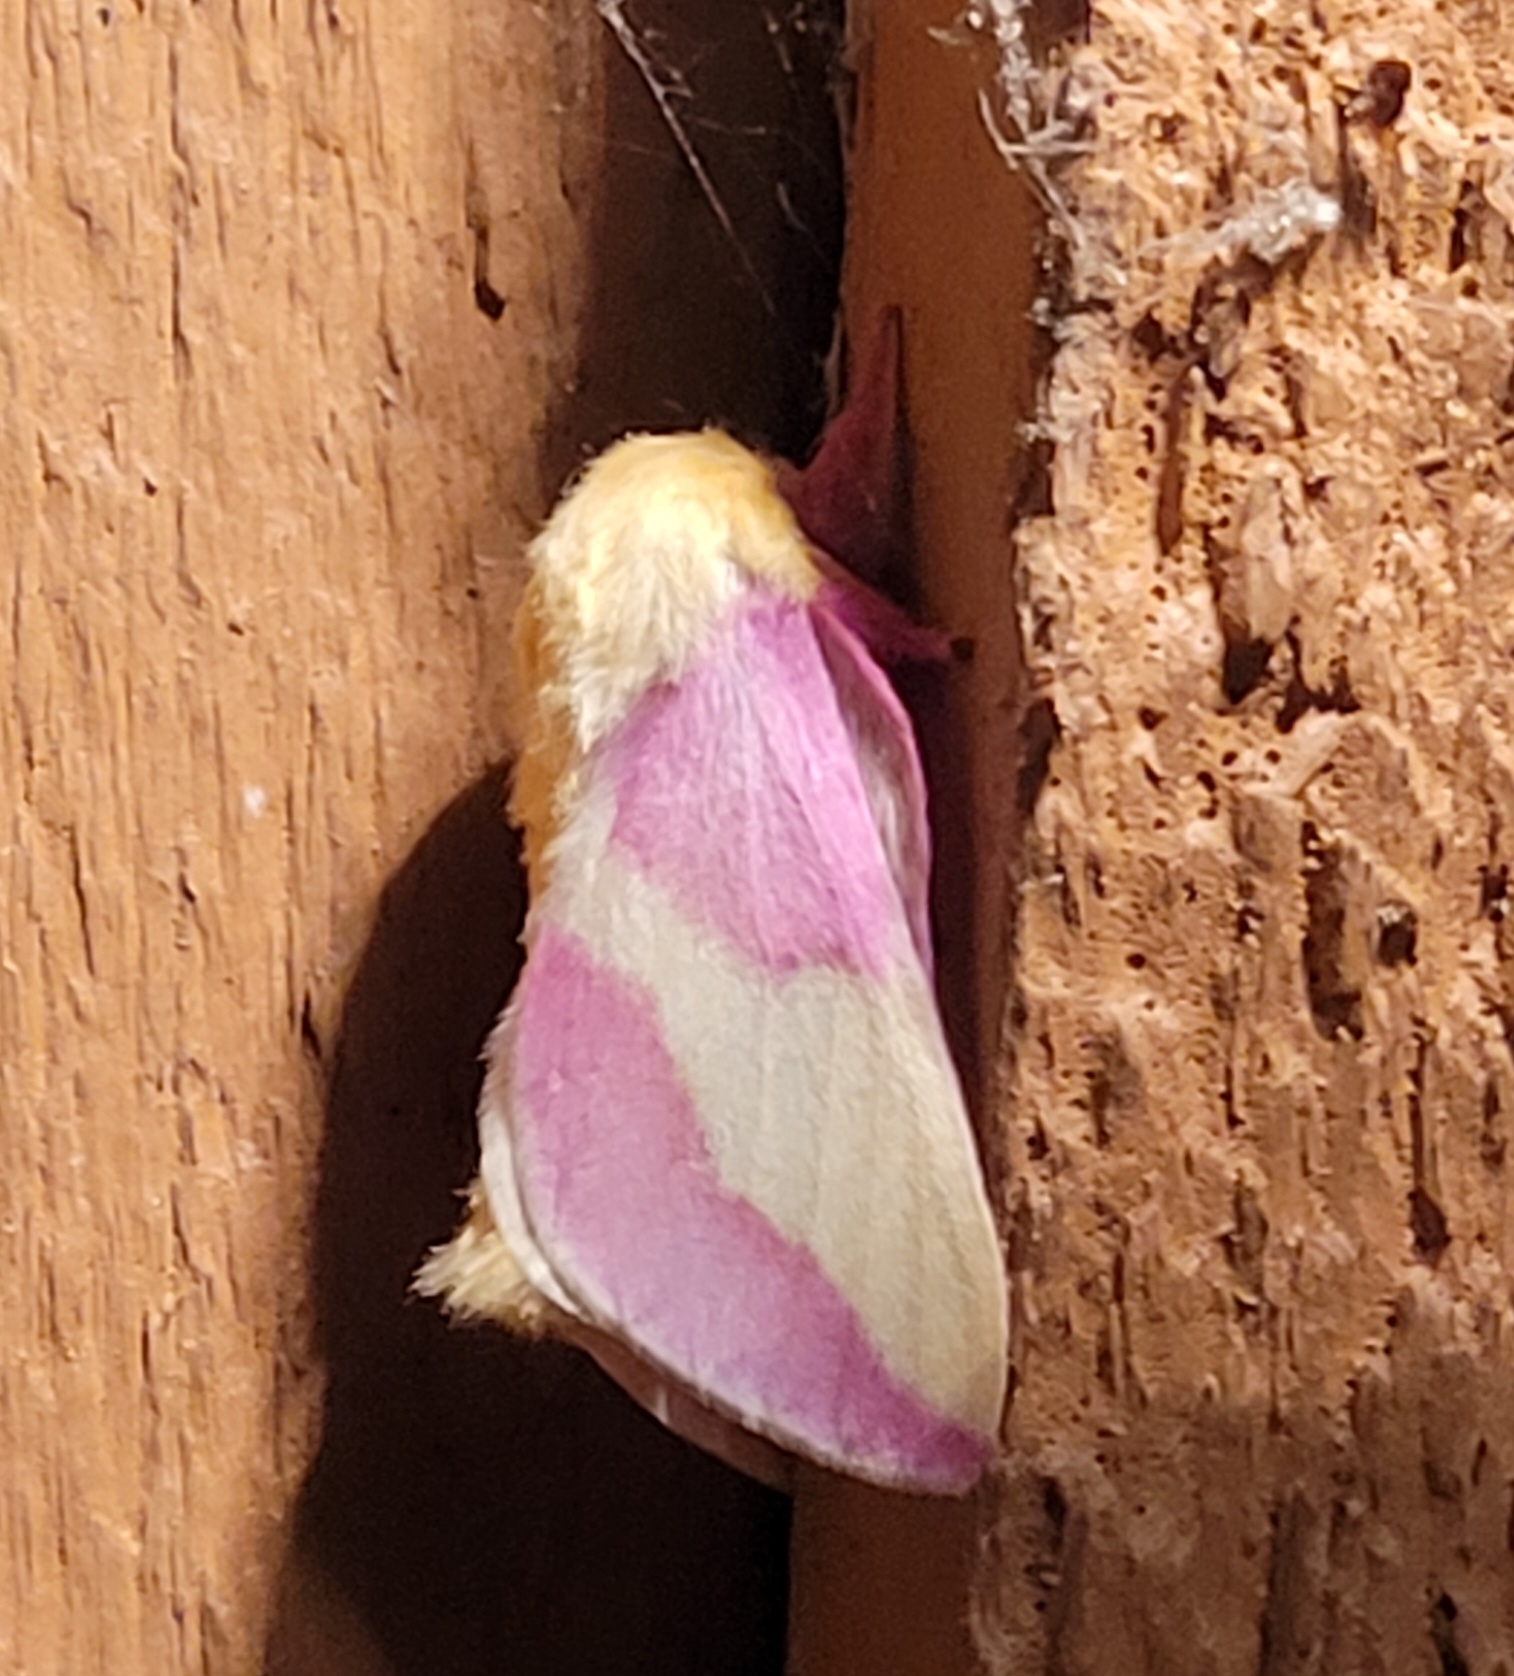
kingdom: Animalia
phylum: Arthropoda
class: Insecta
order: Lepidoptera
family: Saturniidae
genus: Dryocampa
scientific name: Dryocampa rubicunda
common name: Rosy maple moth
